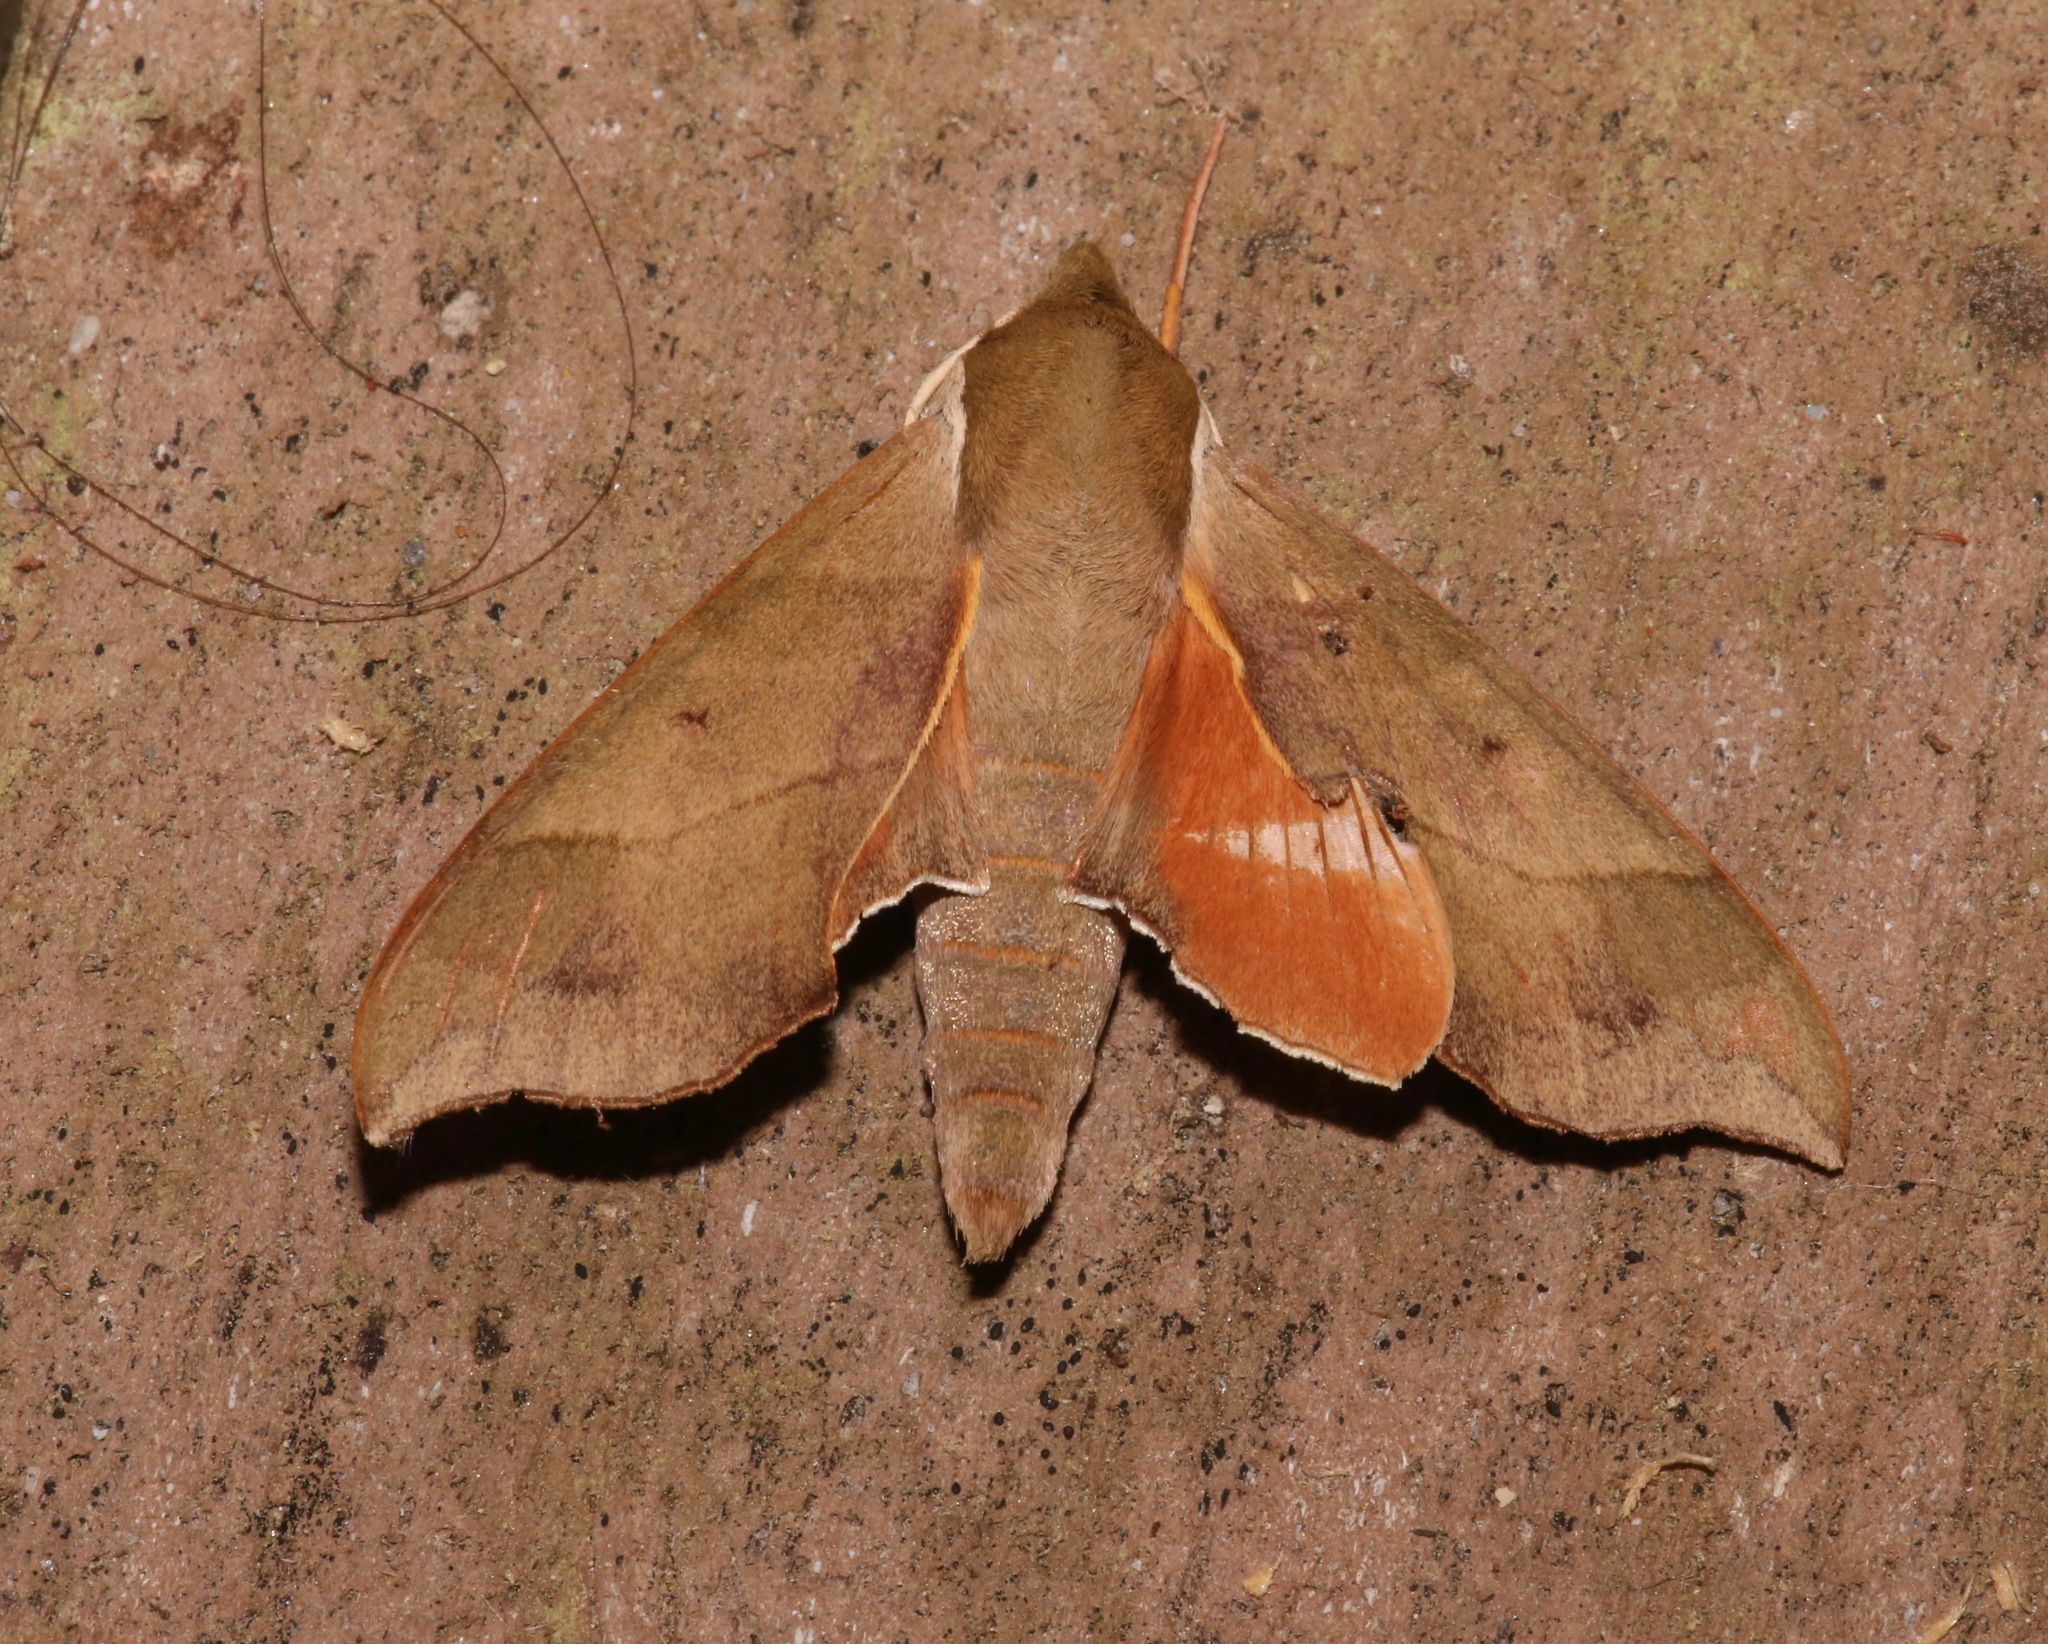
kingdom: Animalia
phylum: Arthropoda
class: Insecta
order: Lepidoptera
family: Sphingidae
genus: Darapsa
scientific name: Darapsa myron
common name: Hog sphinx
